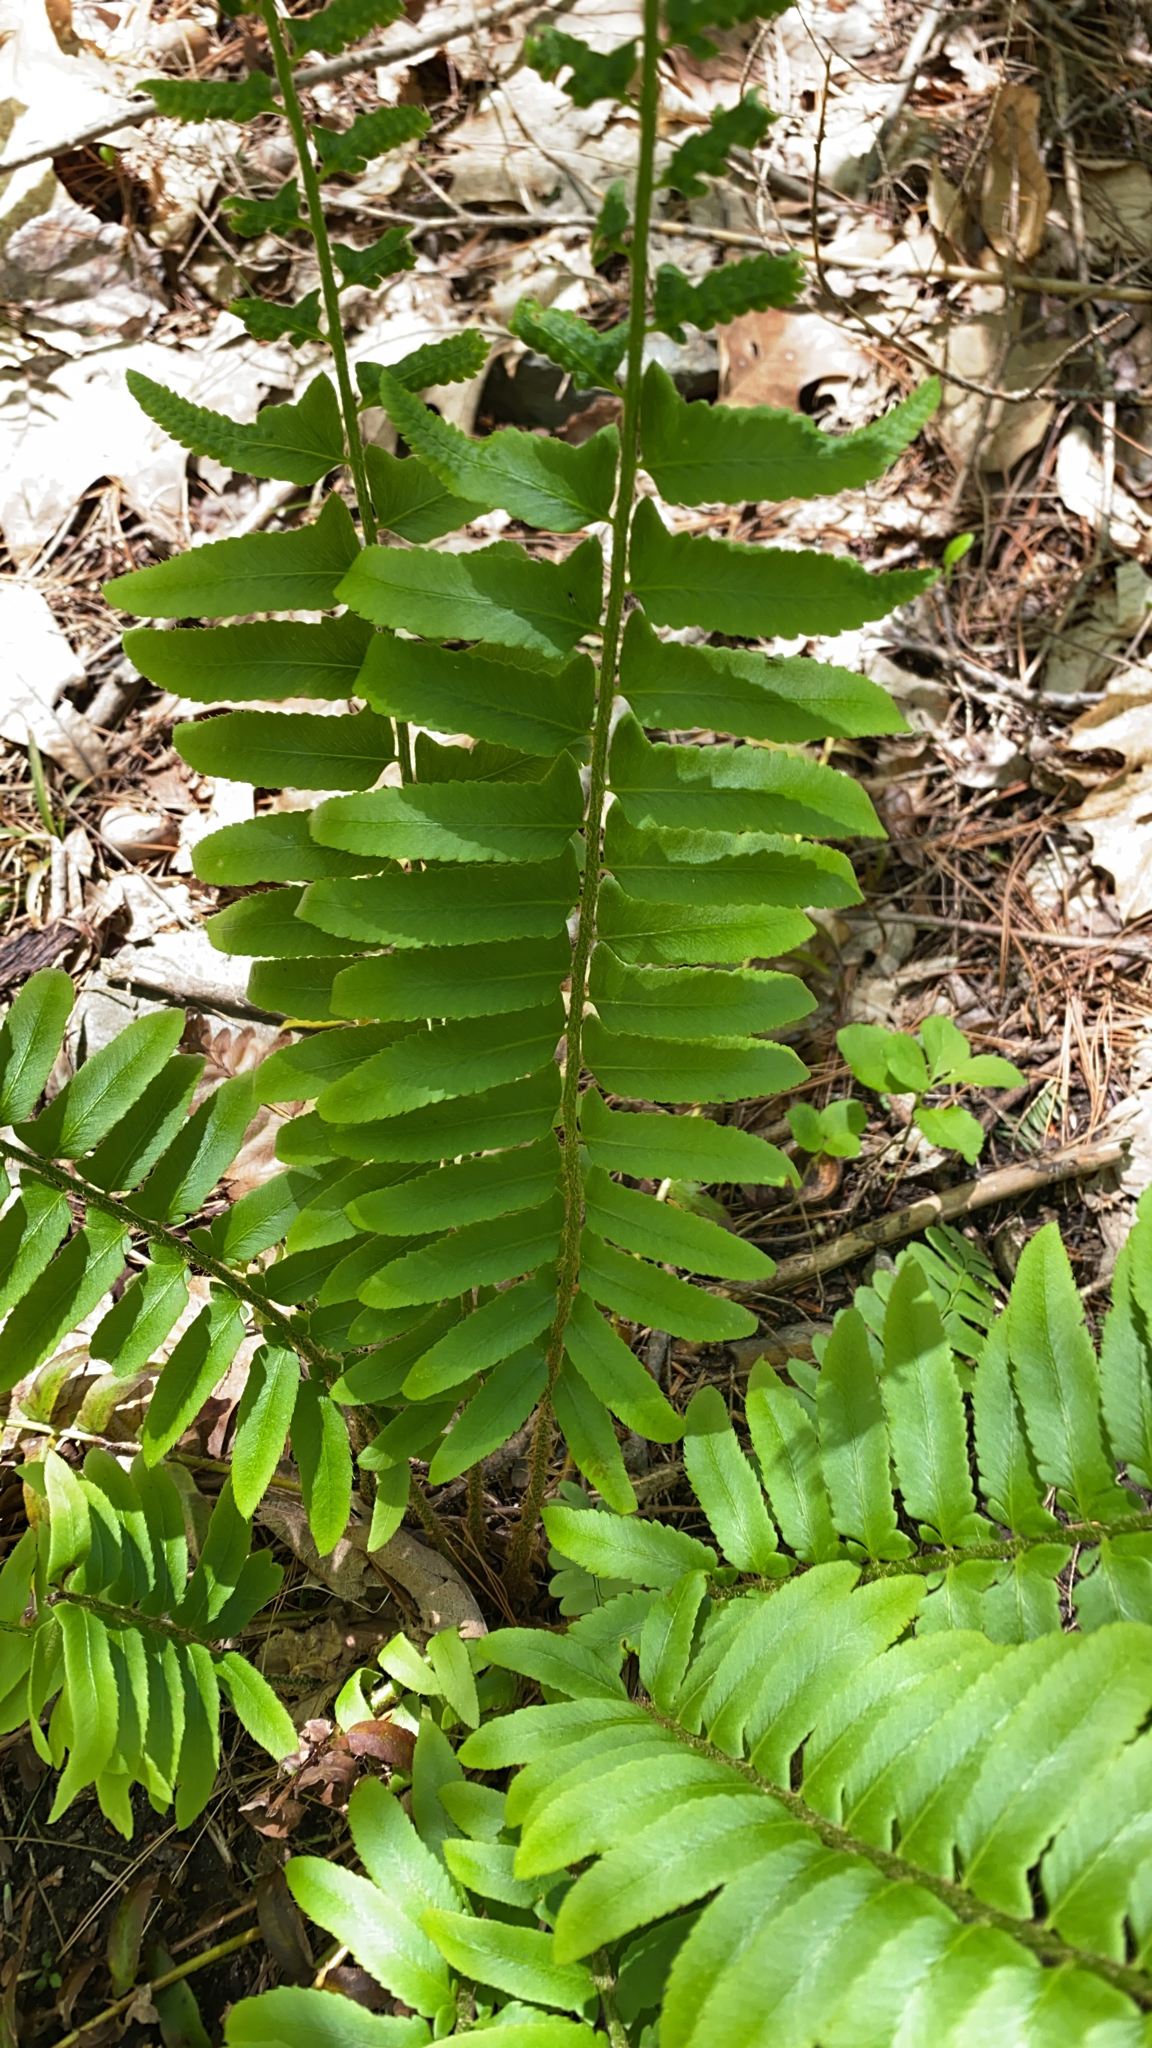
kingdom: Plantae
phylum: Tracheophyta
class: Polypodiopsida
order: Polypodiales
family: Dryopteridaceae
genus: Polystichum
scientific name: Polystichum acrostichoides
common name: Christmas fern
